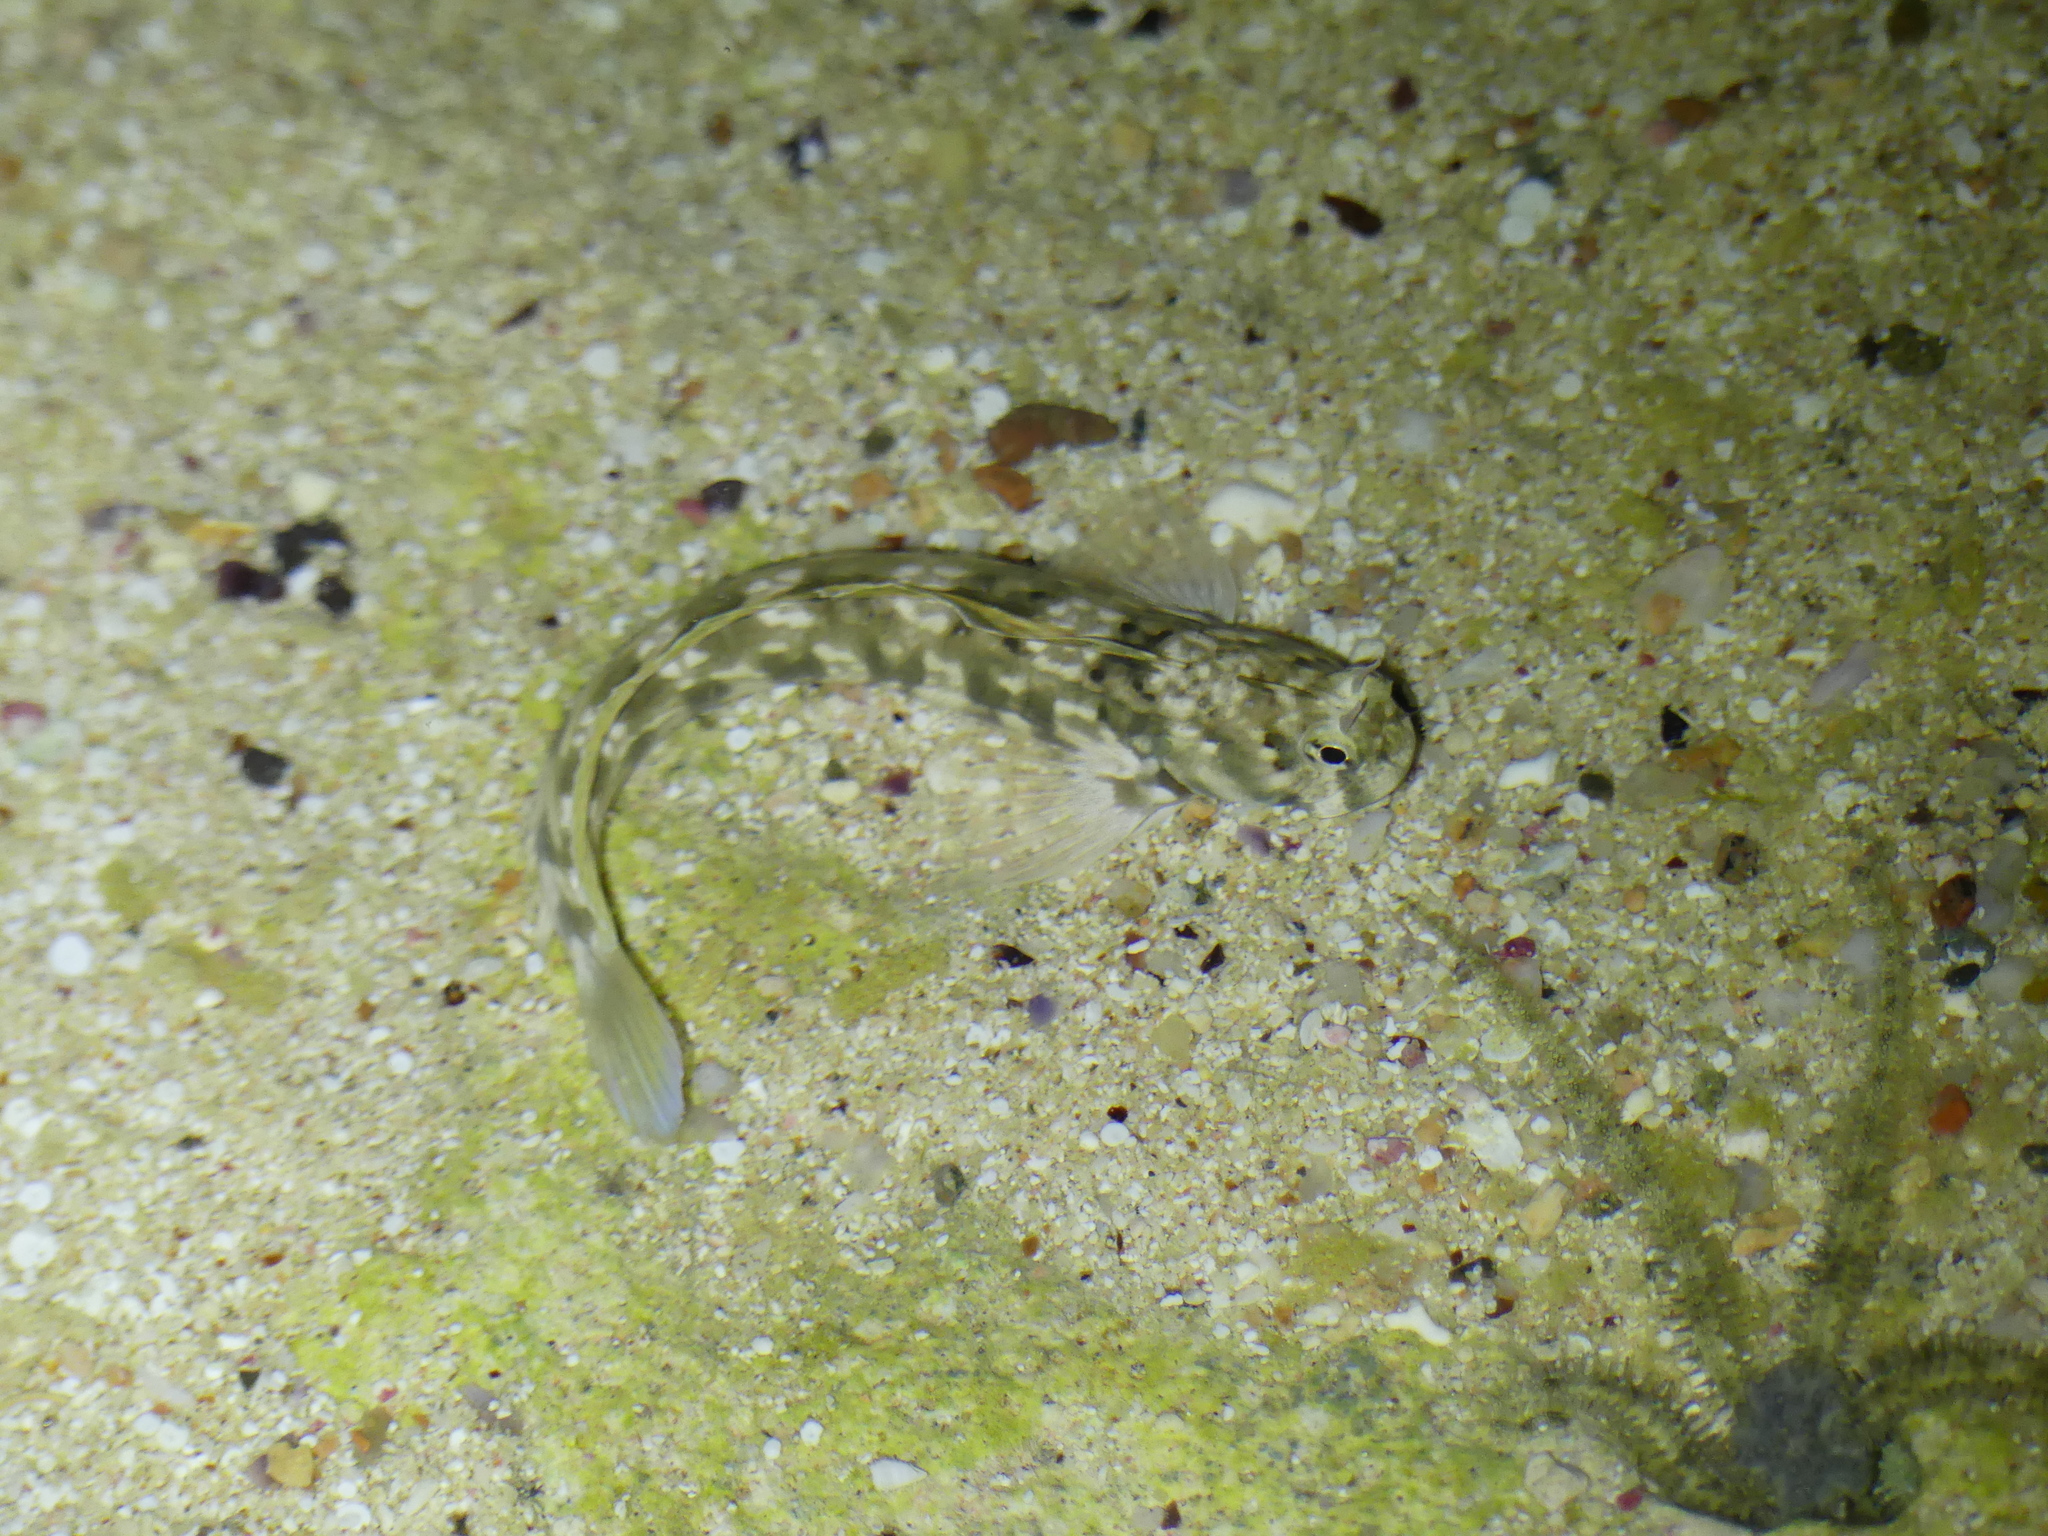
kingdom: Animalia
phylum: Chordata
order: Perciformes
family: Blenniidae
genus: Istiblennius
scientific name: Istiblennius rivulatus
